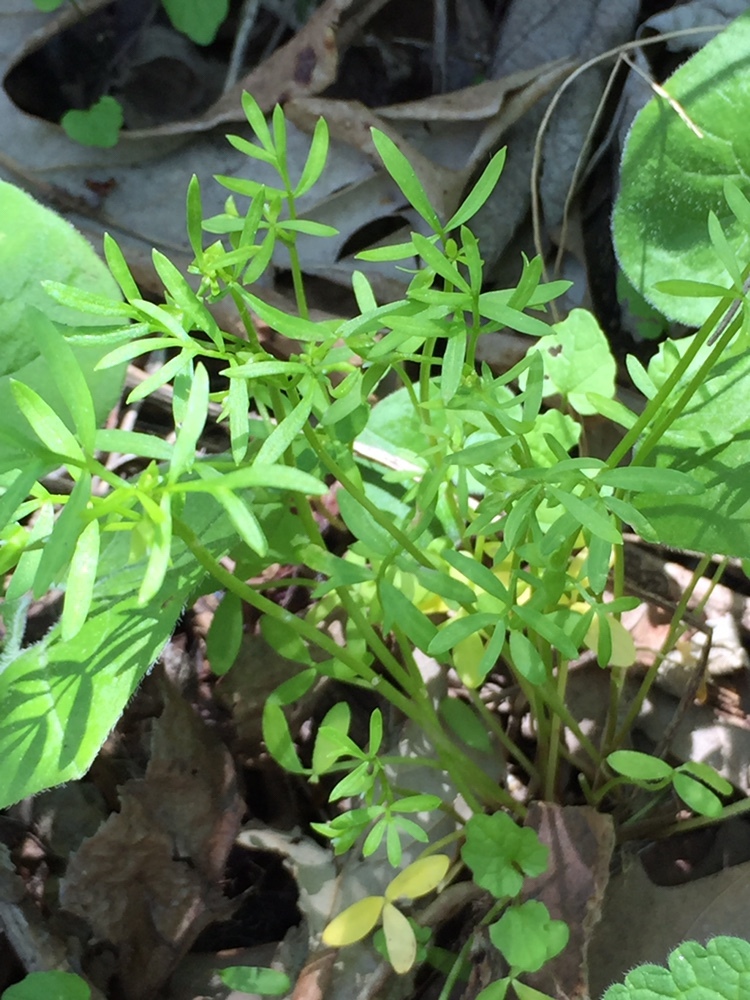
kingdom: Plantae
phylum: Tracheophyta
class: Magnoliopsida
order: Brassicales
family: Limnanthaceae
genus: Floerkea
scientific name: Floerkea proserpinacoides
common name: False mermaid
